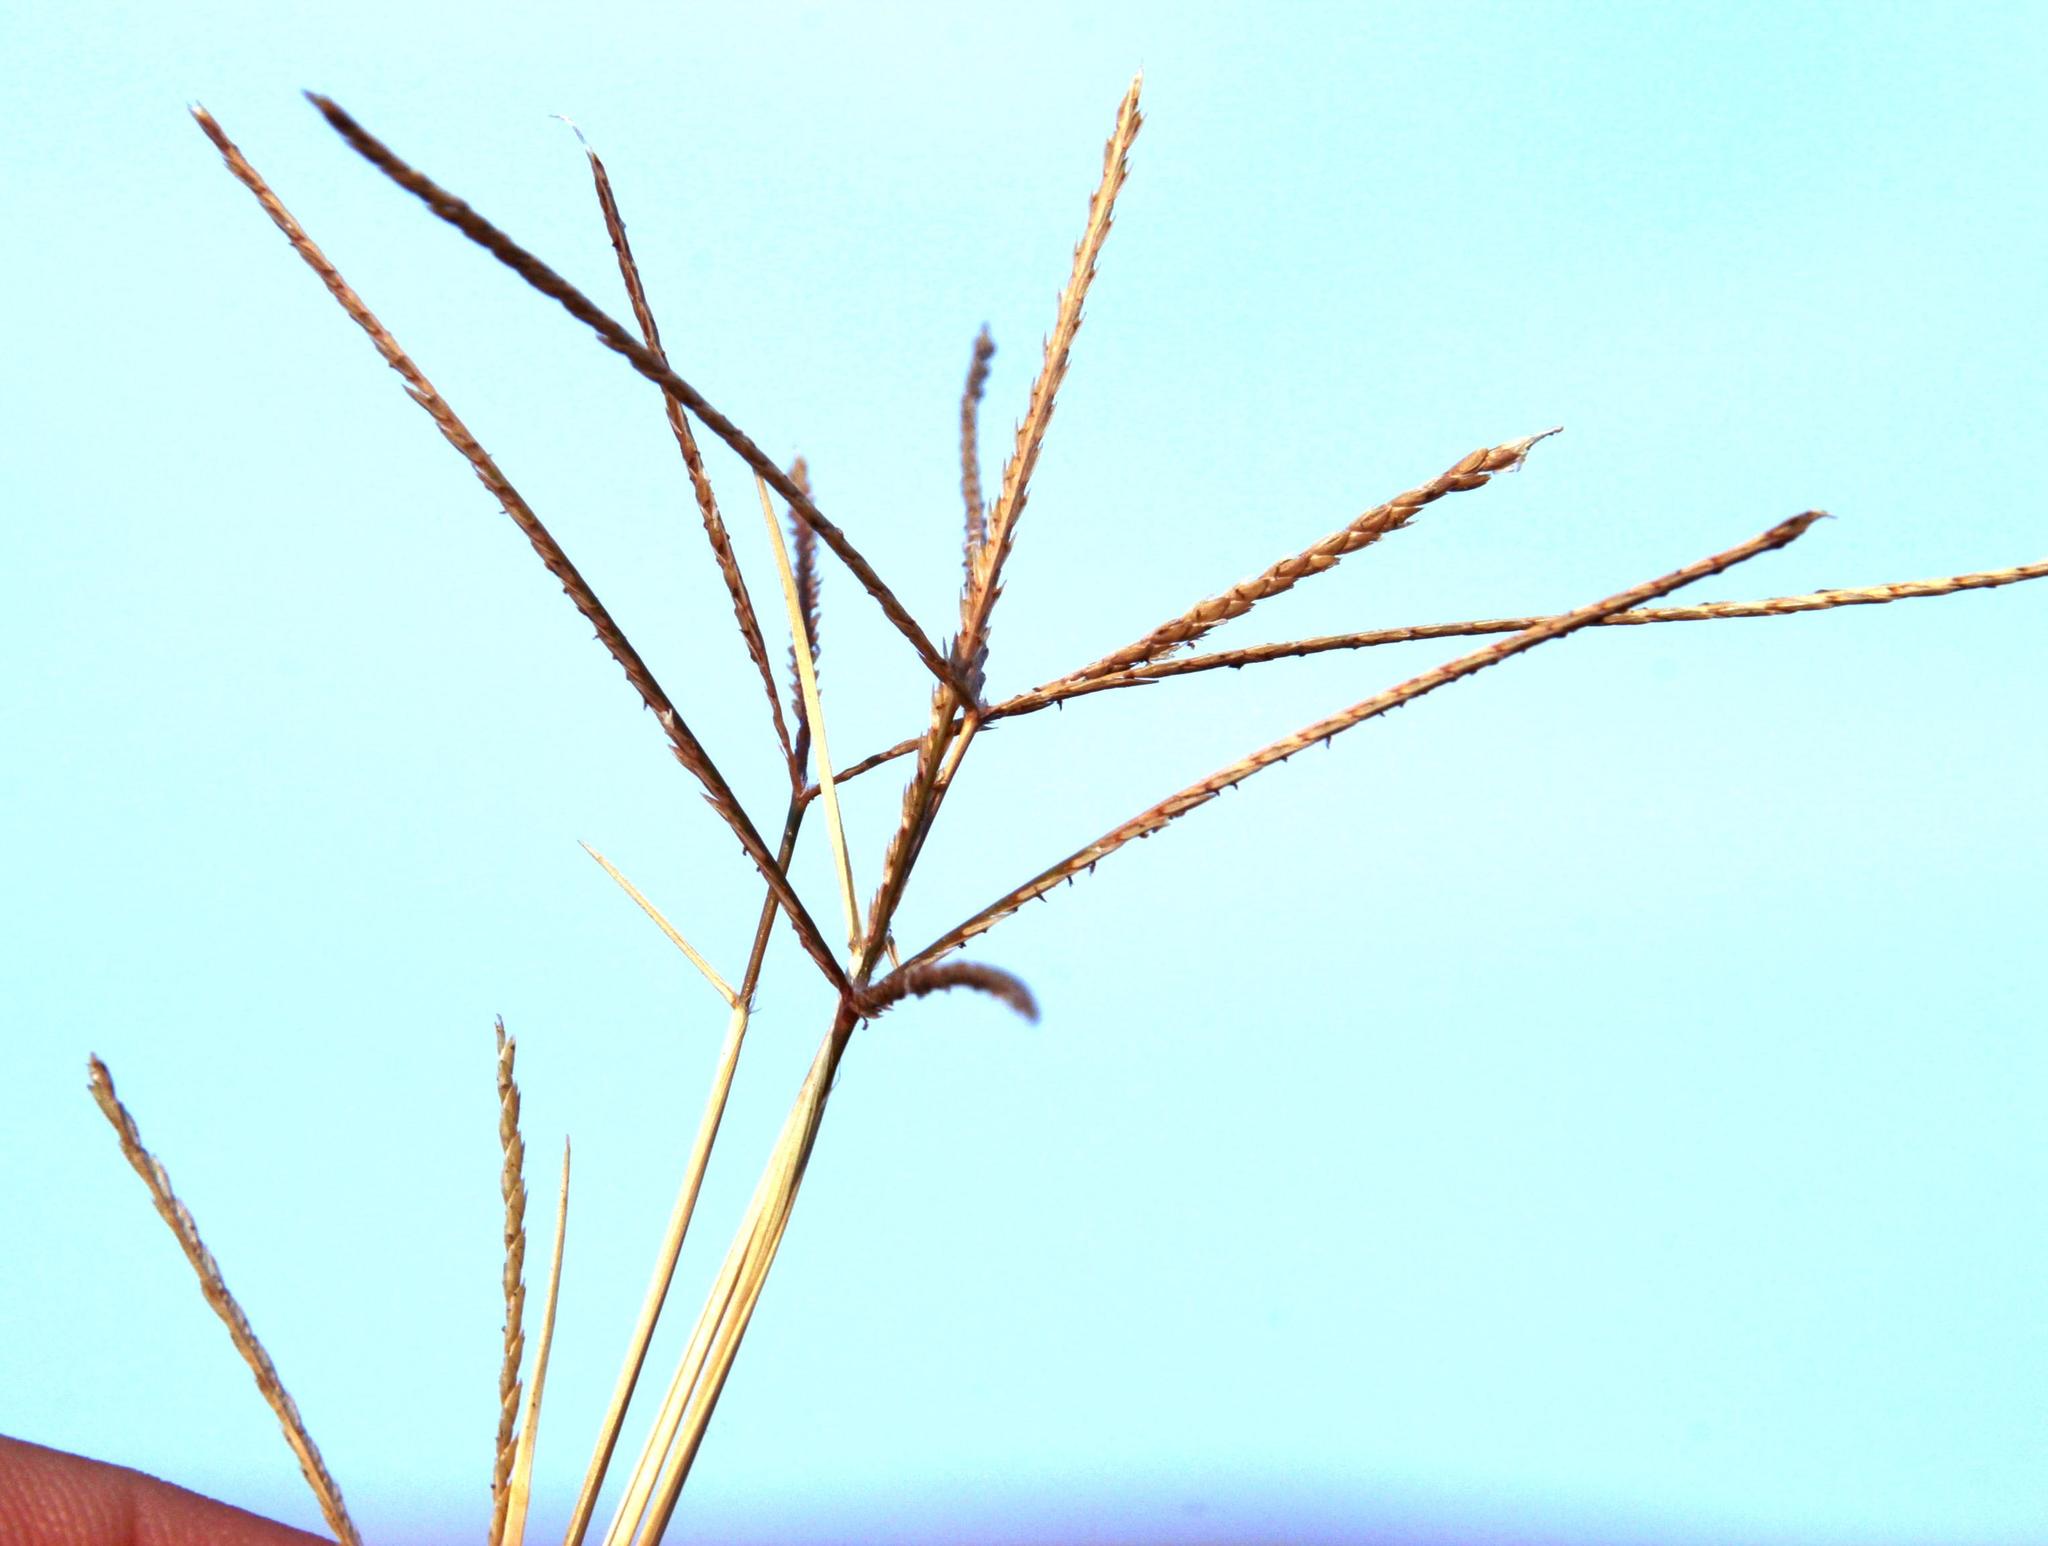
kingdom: Plantae
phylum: Tracheophyta
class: Liliopsida
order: Poales
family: Poaceae
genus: Cynodon
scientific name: Cynodon dactylon
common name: Bermuda grass
